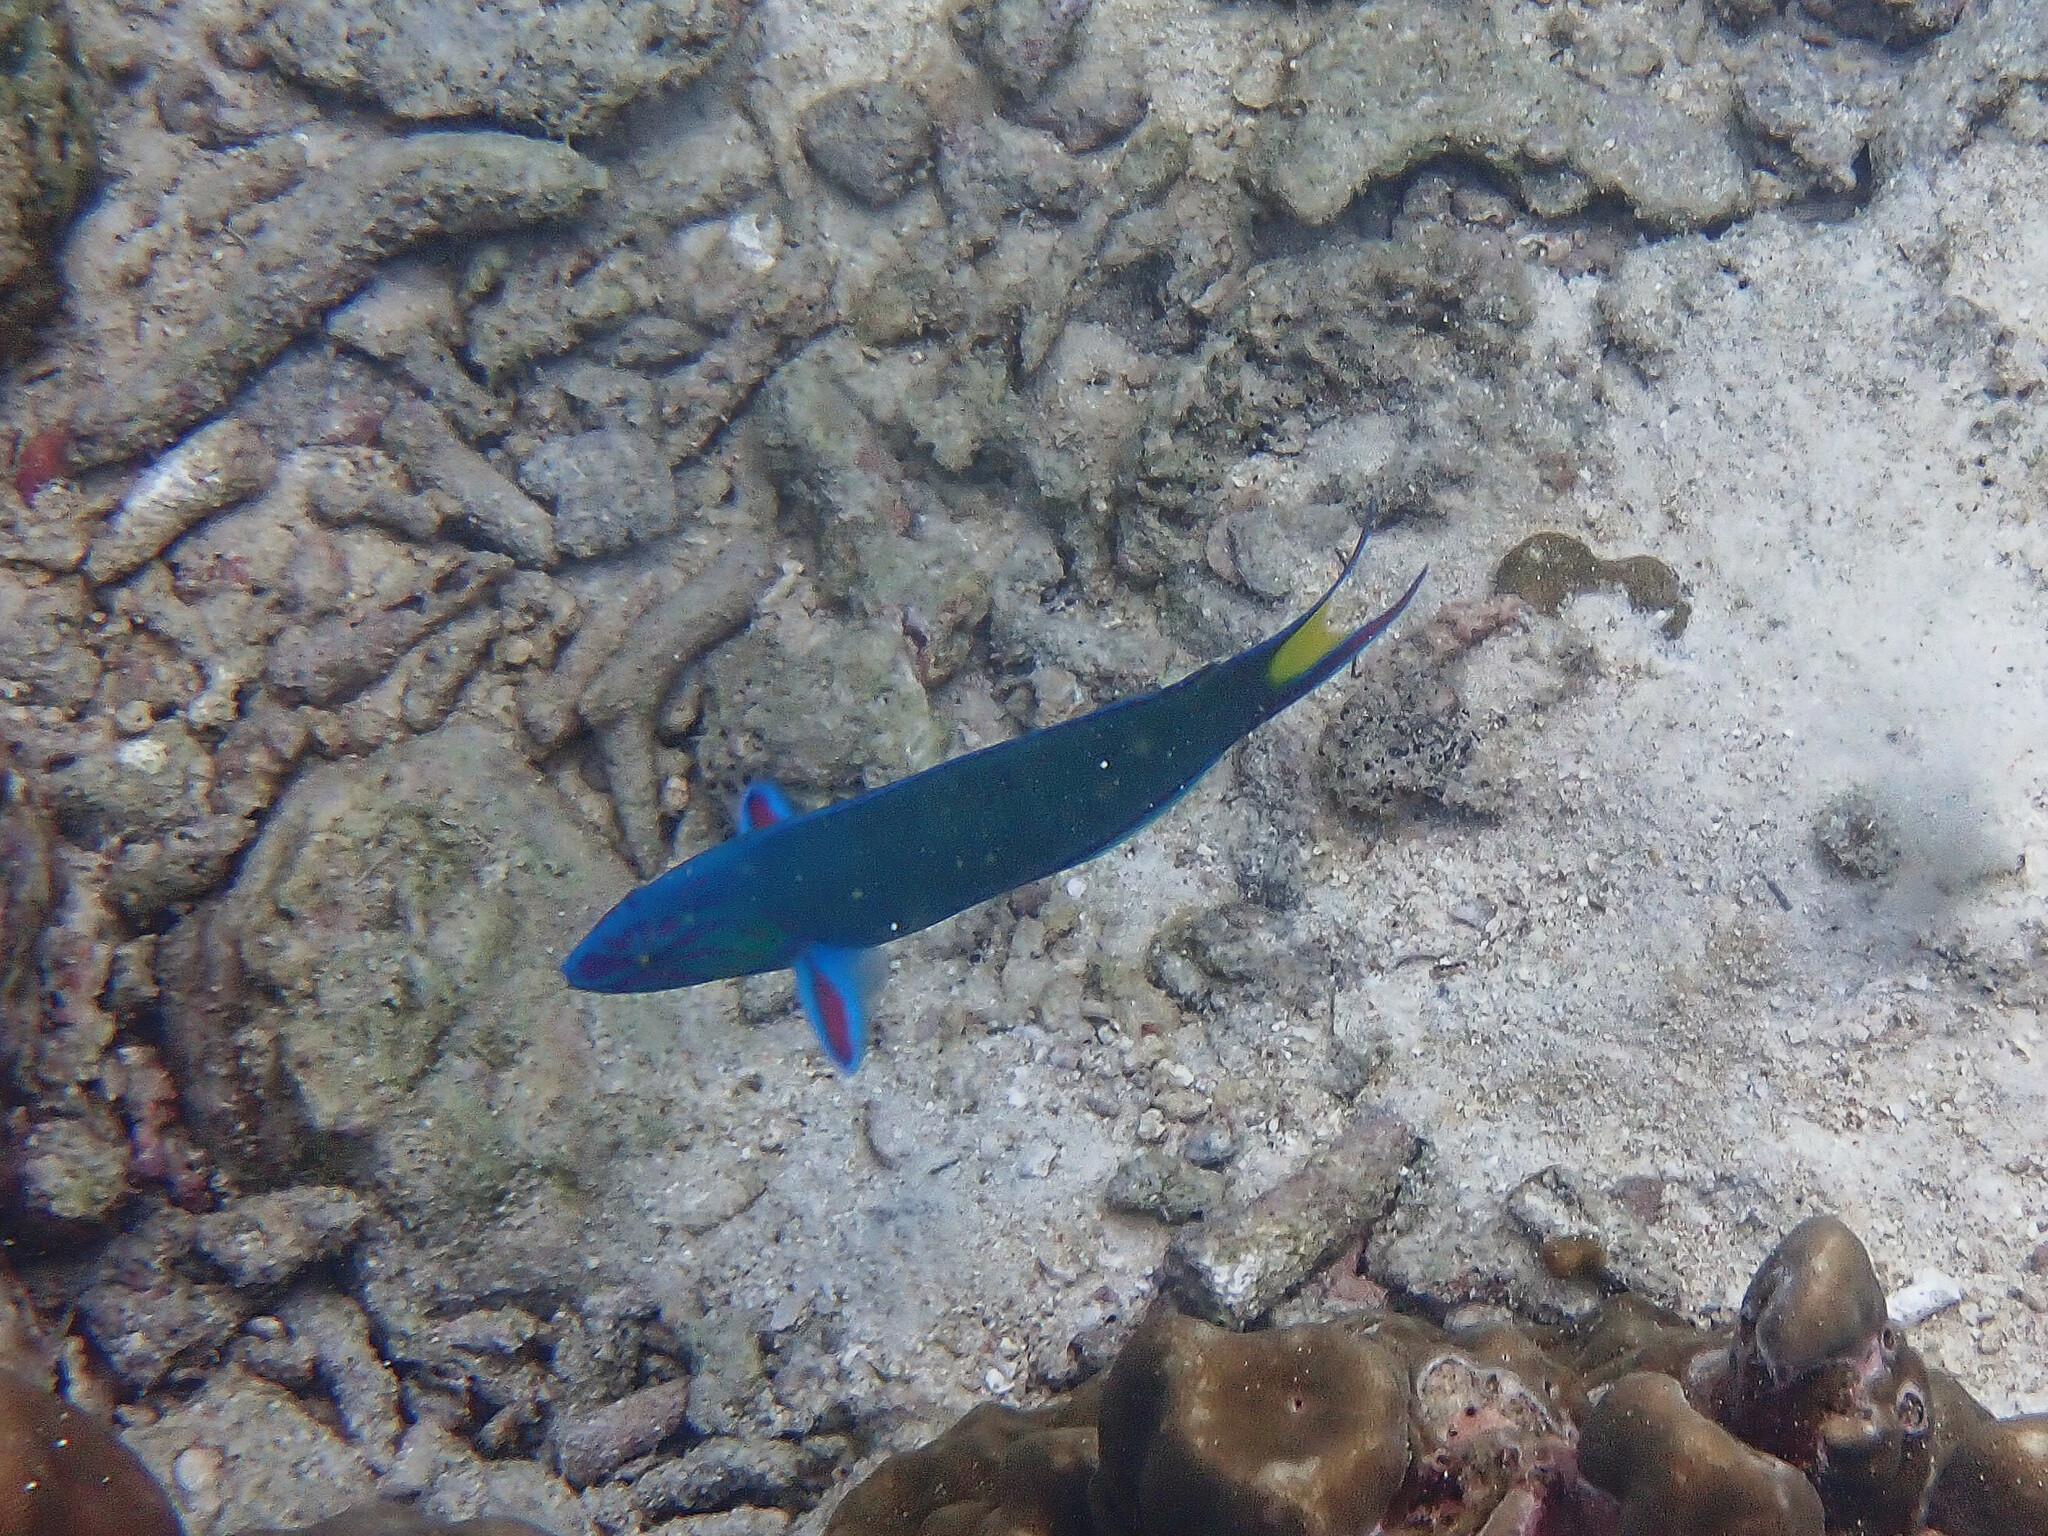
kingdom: Animalia
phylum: Chordata
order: Perciformes
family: Labridae
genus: Thalassoma
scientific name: Thalassoma lunare
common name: Blue wrasse
